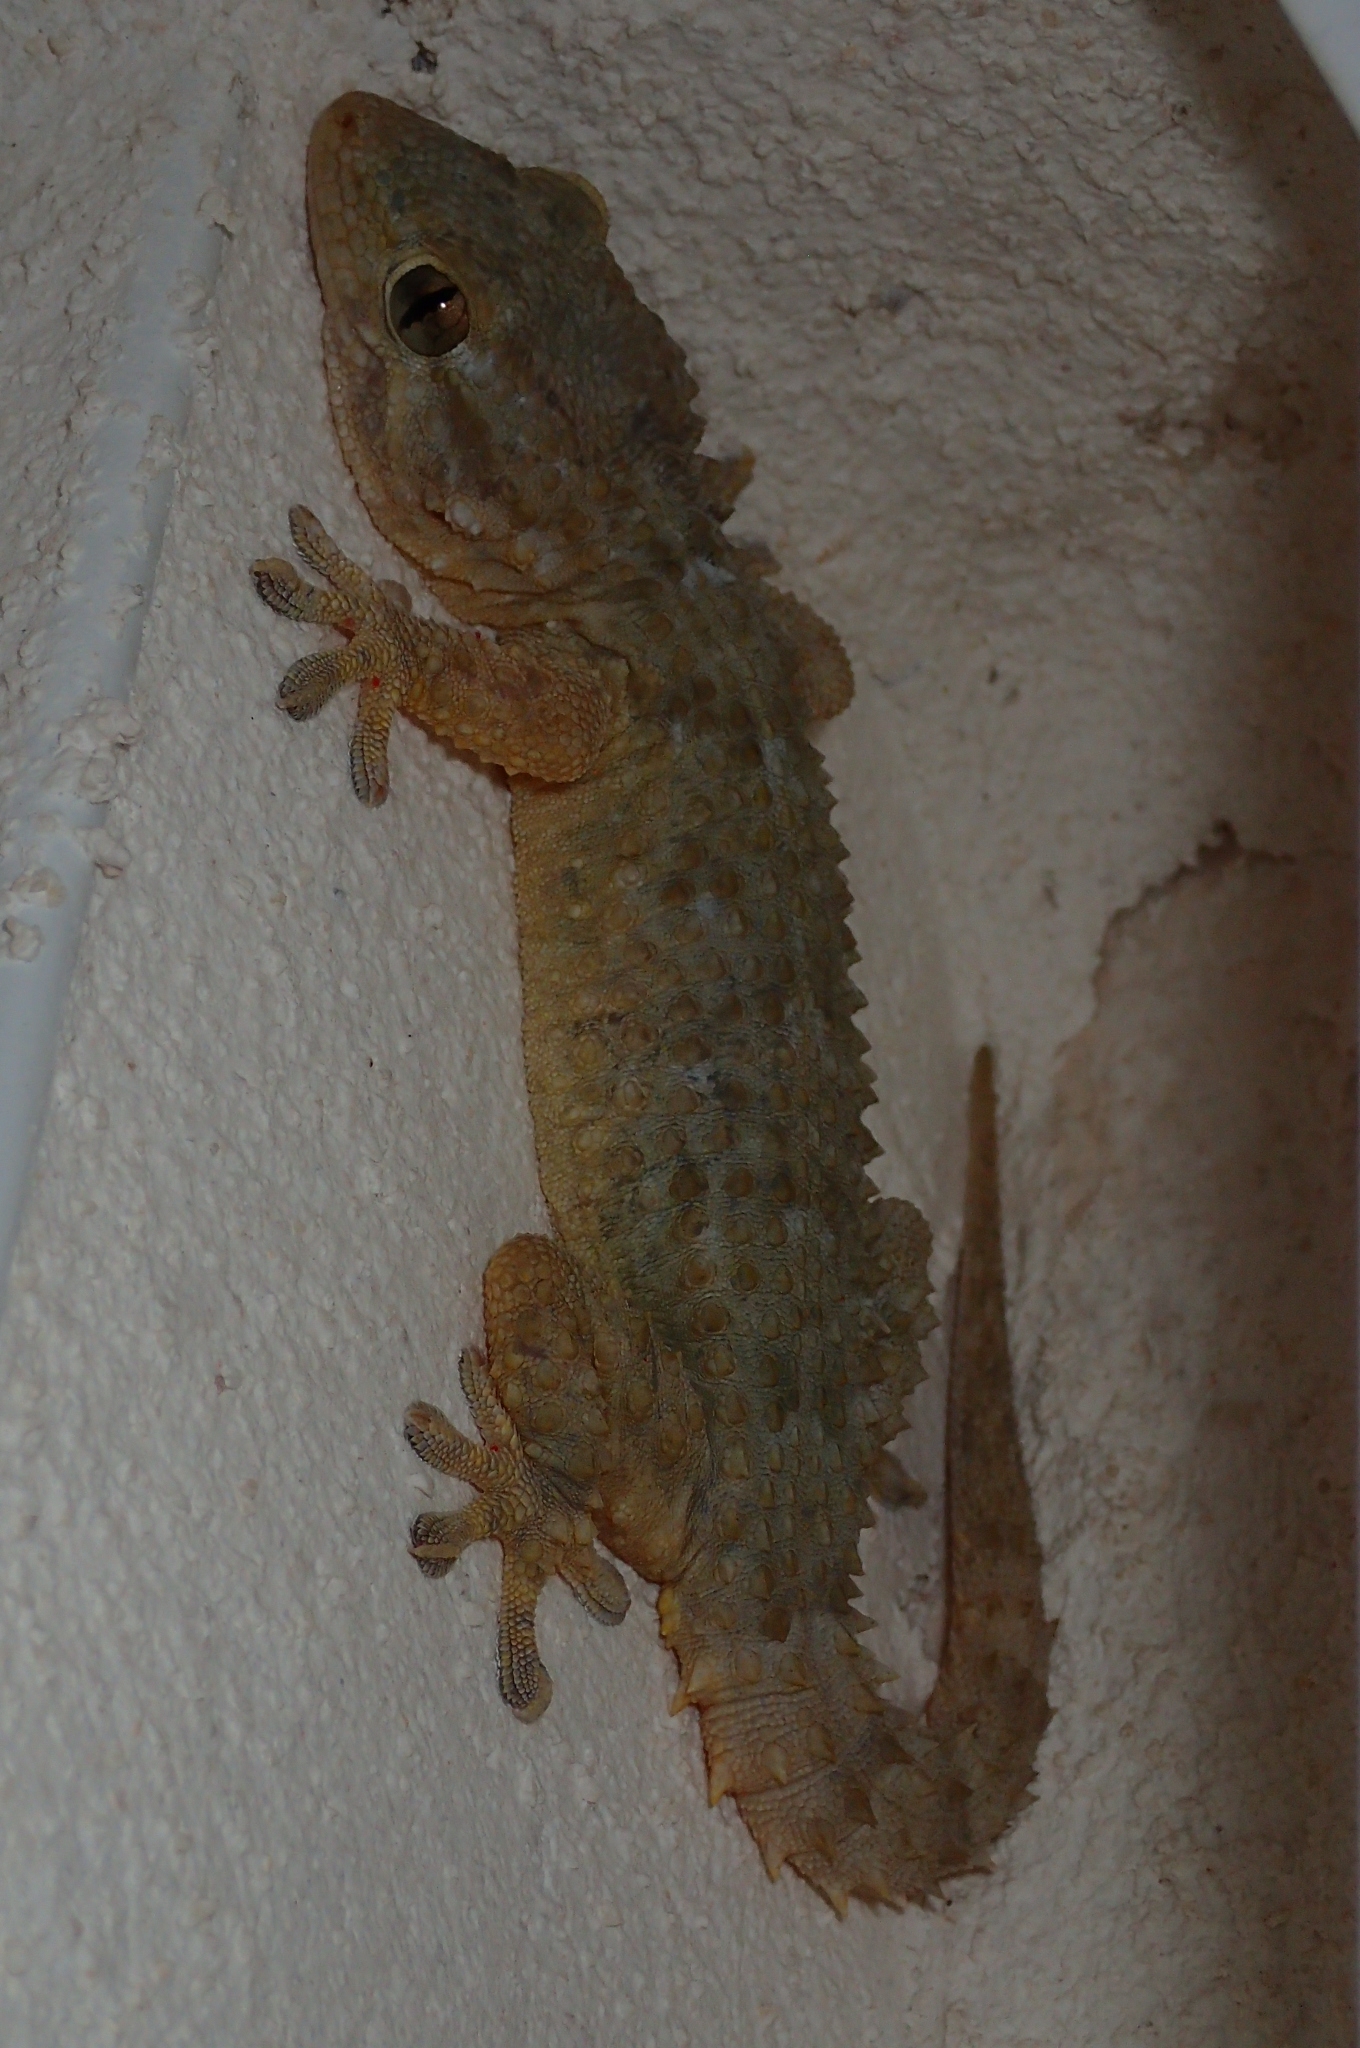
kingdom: Animalia
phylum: Chordata
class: Squamata
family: Phyllodactylidae
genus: Tarentola
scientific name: Tarentola mauritanica
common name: Moorish gecko
